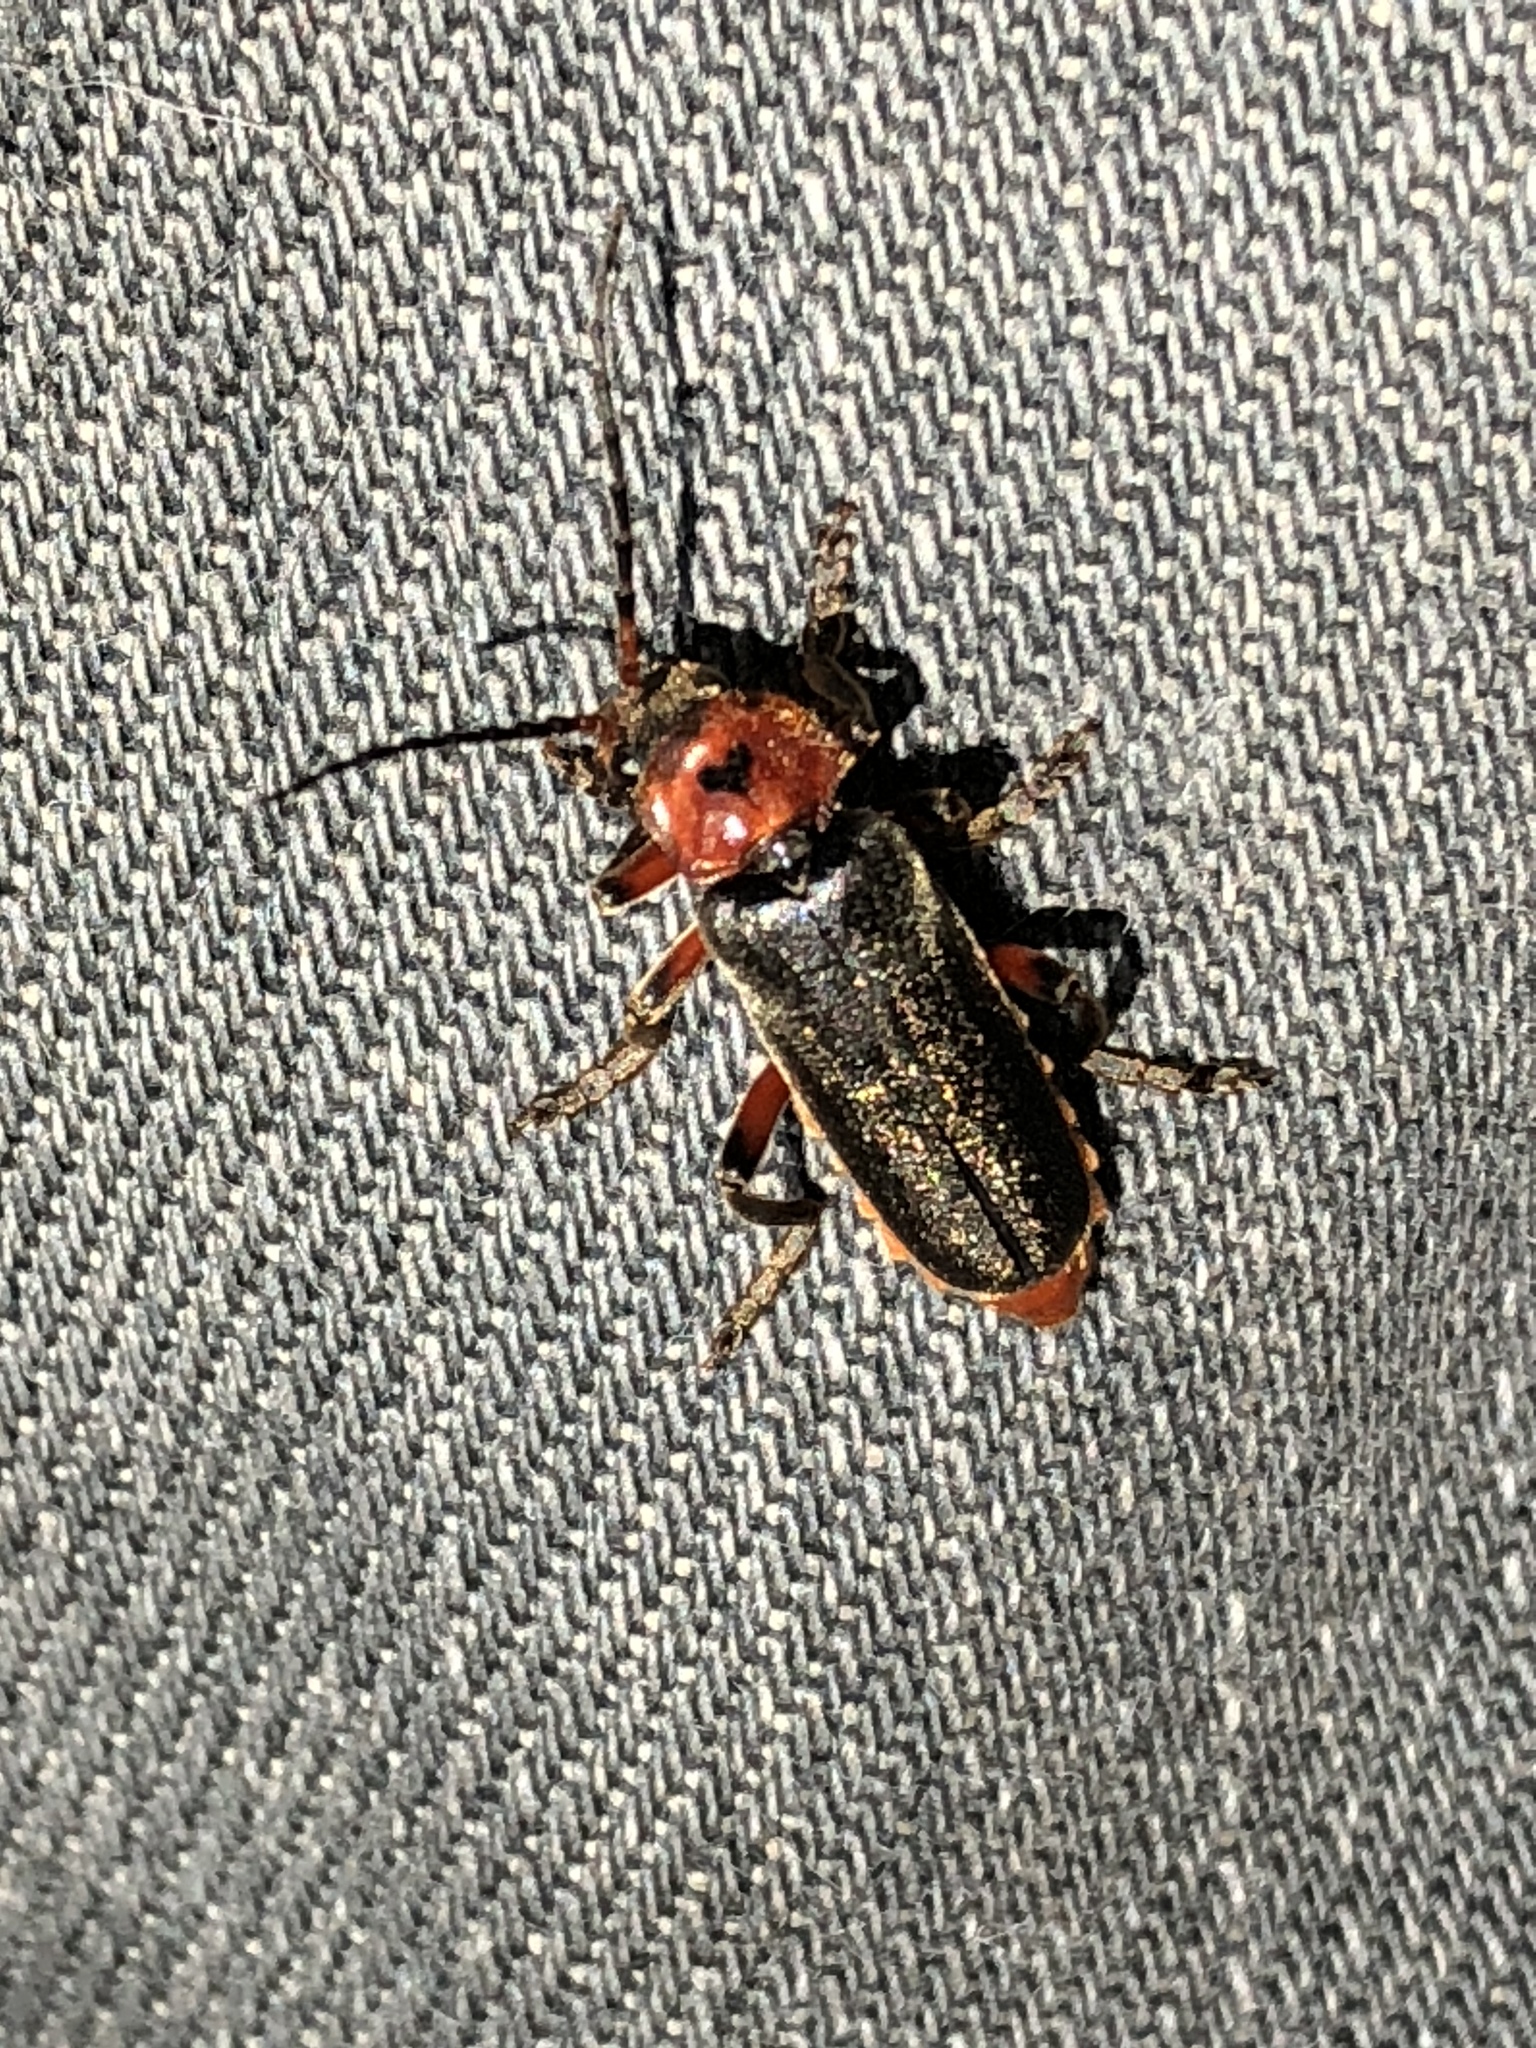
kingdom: Animalia
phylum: Arthropoda
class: Insecta
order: Coleoptera
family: Cantharidae
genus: Cantharis
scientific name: Cantharis rustica
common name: Soldier beetle
